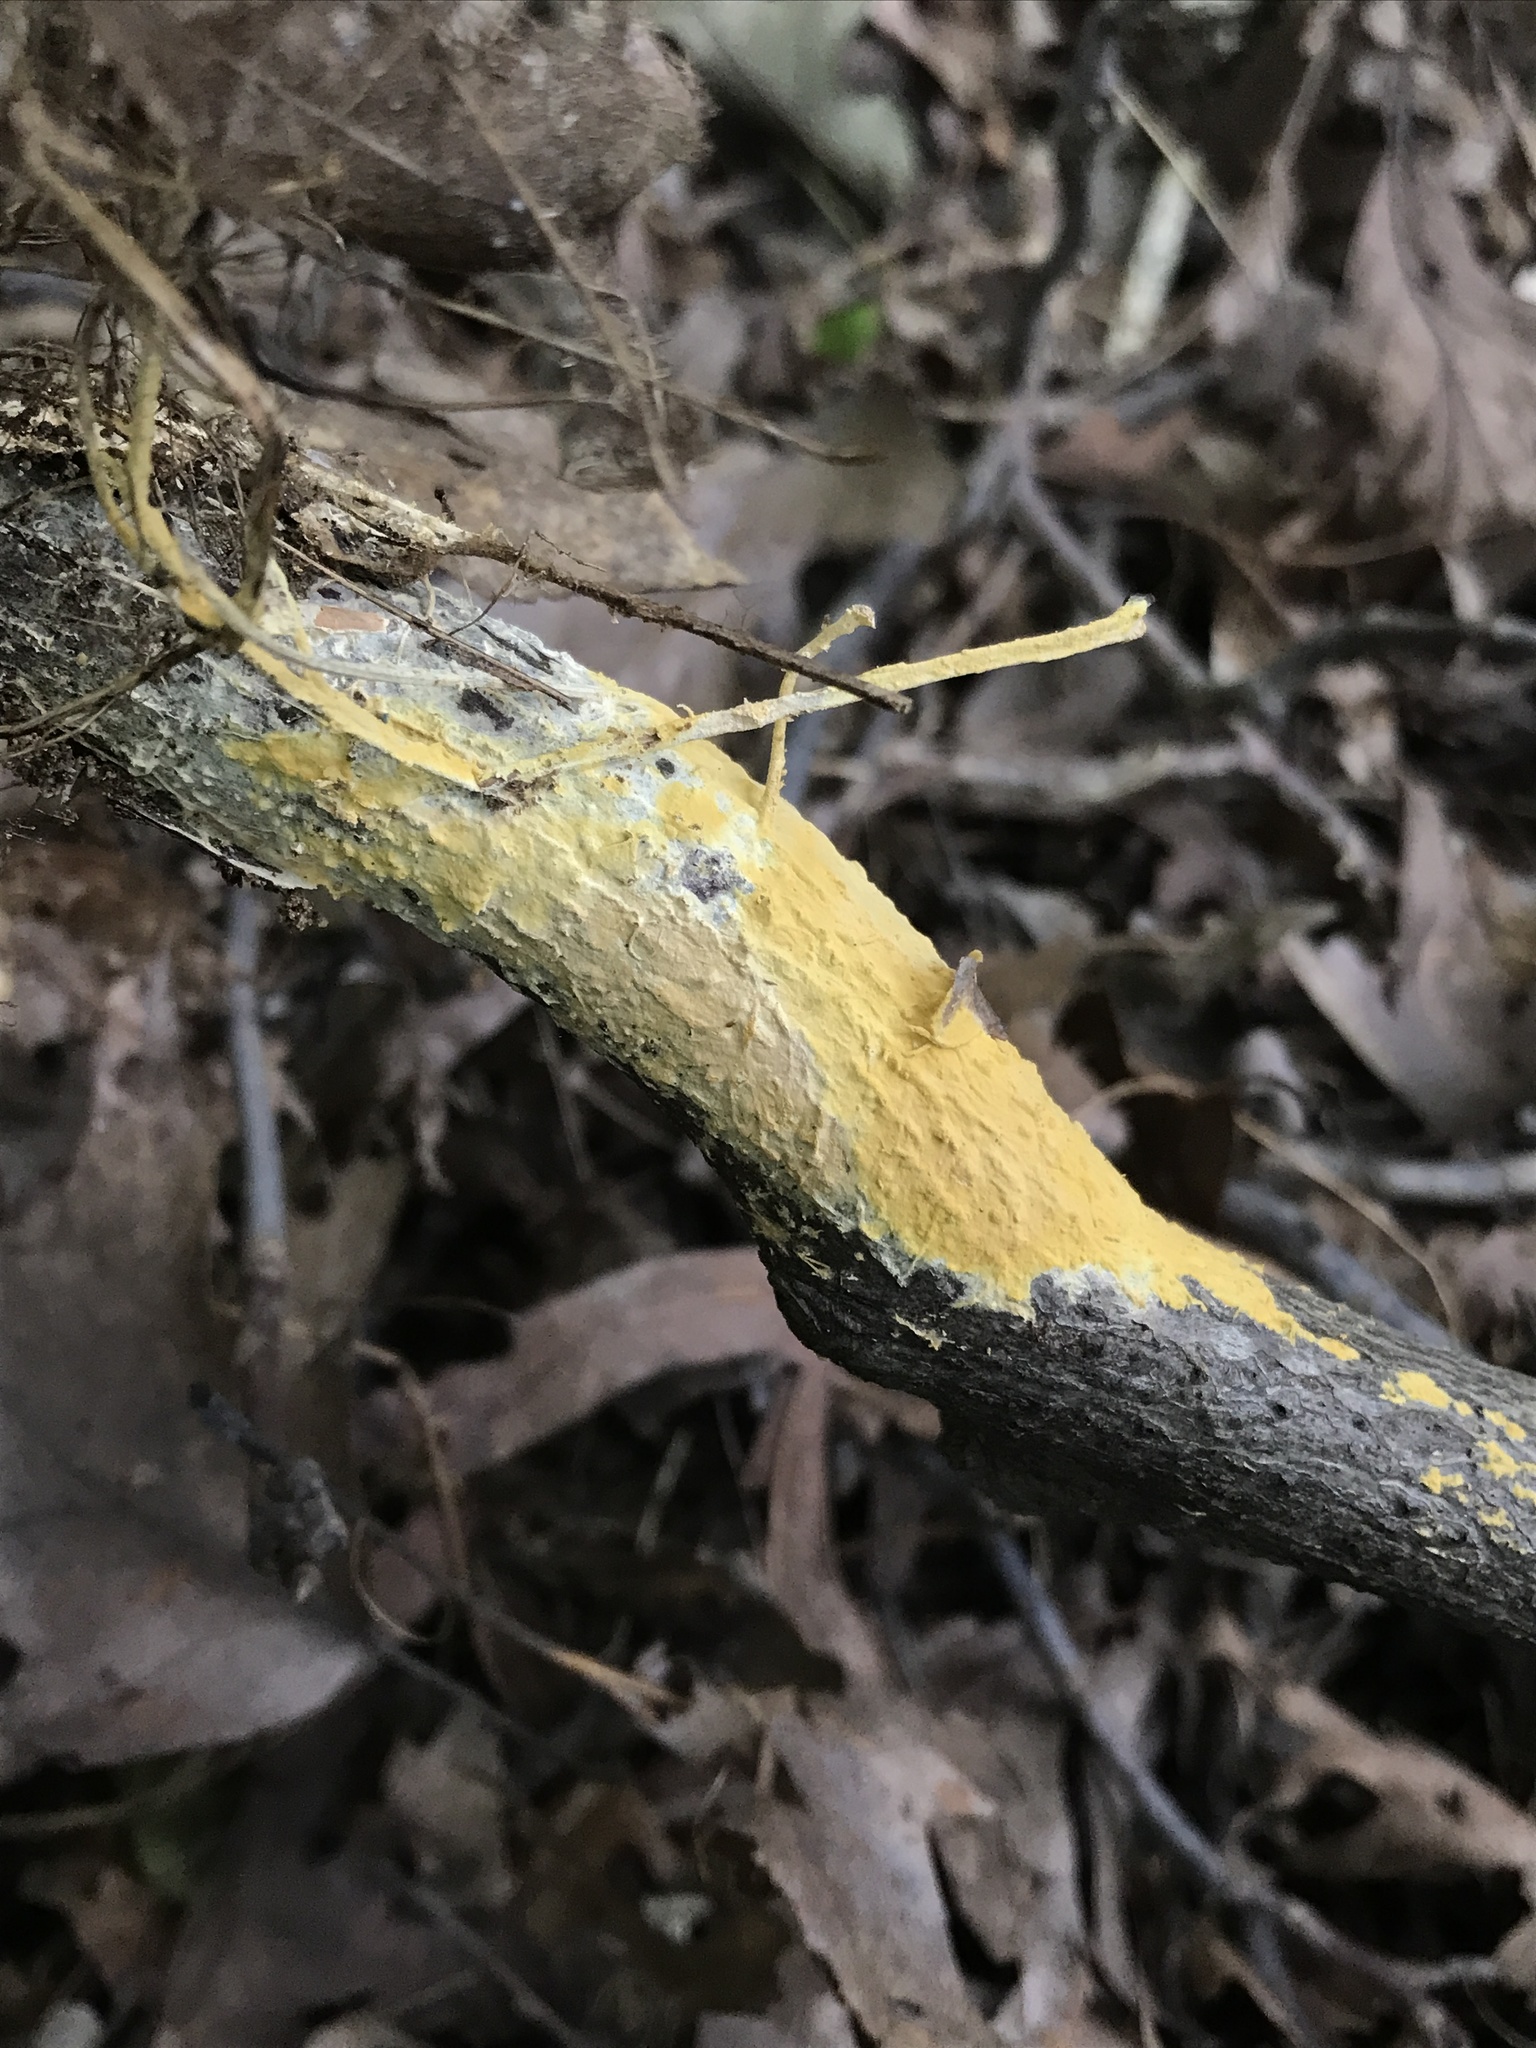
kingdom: Fungi
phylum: Basidiomycota
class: Agaricomycetes
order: Russulales
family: Peniophoraceae
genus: Vararia
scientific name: Vararia investiens
